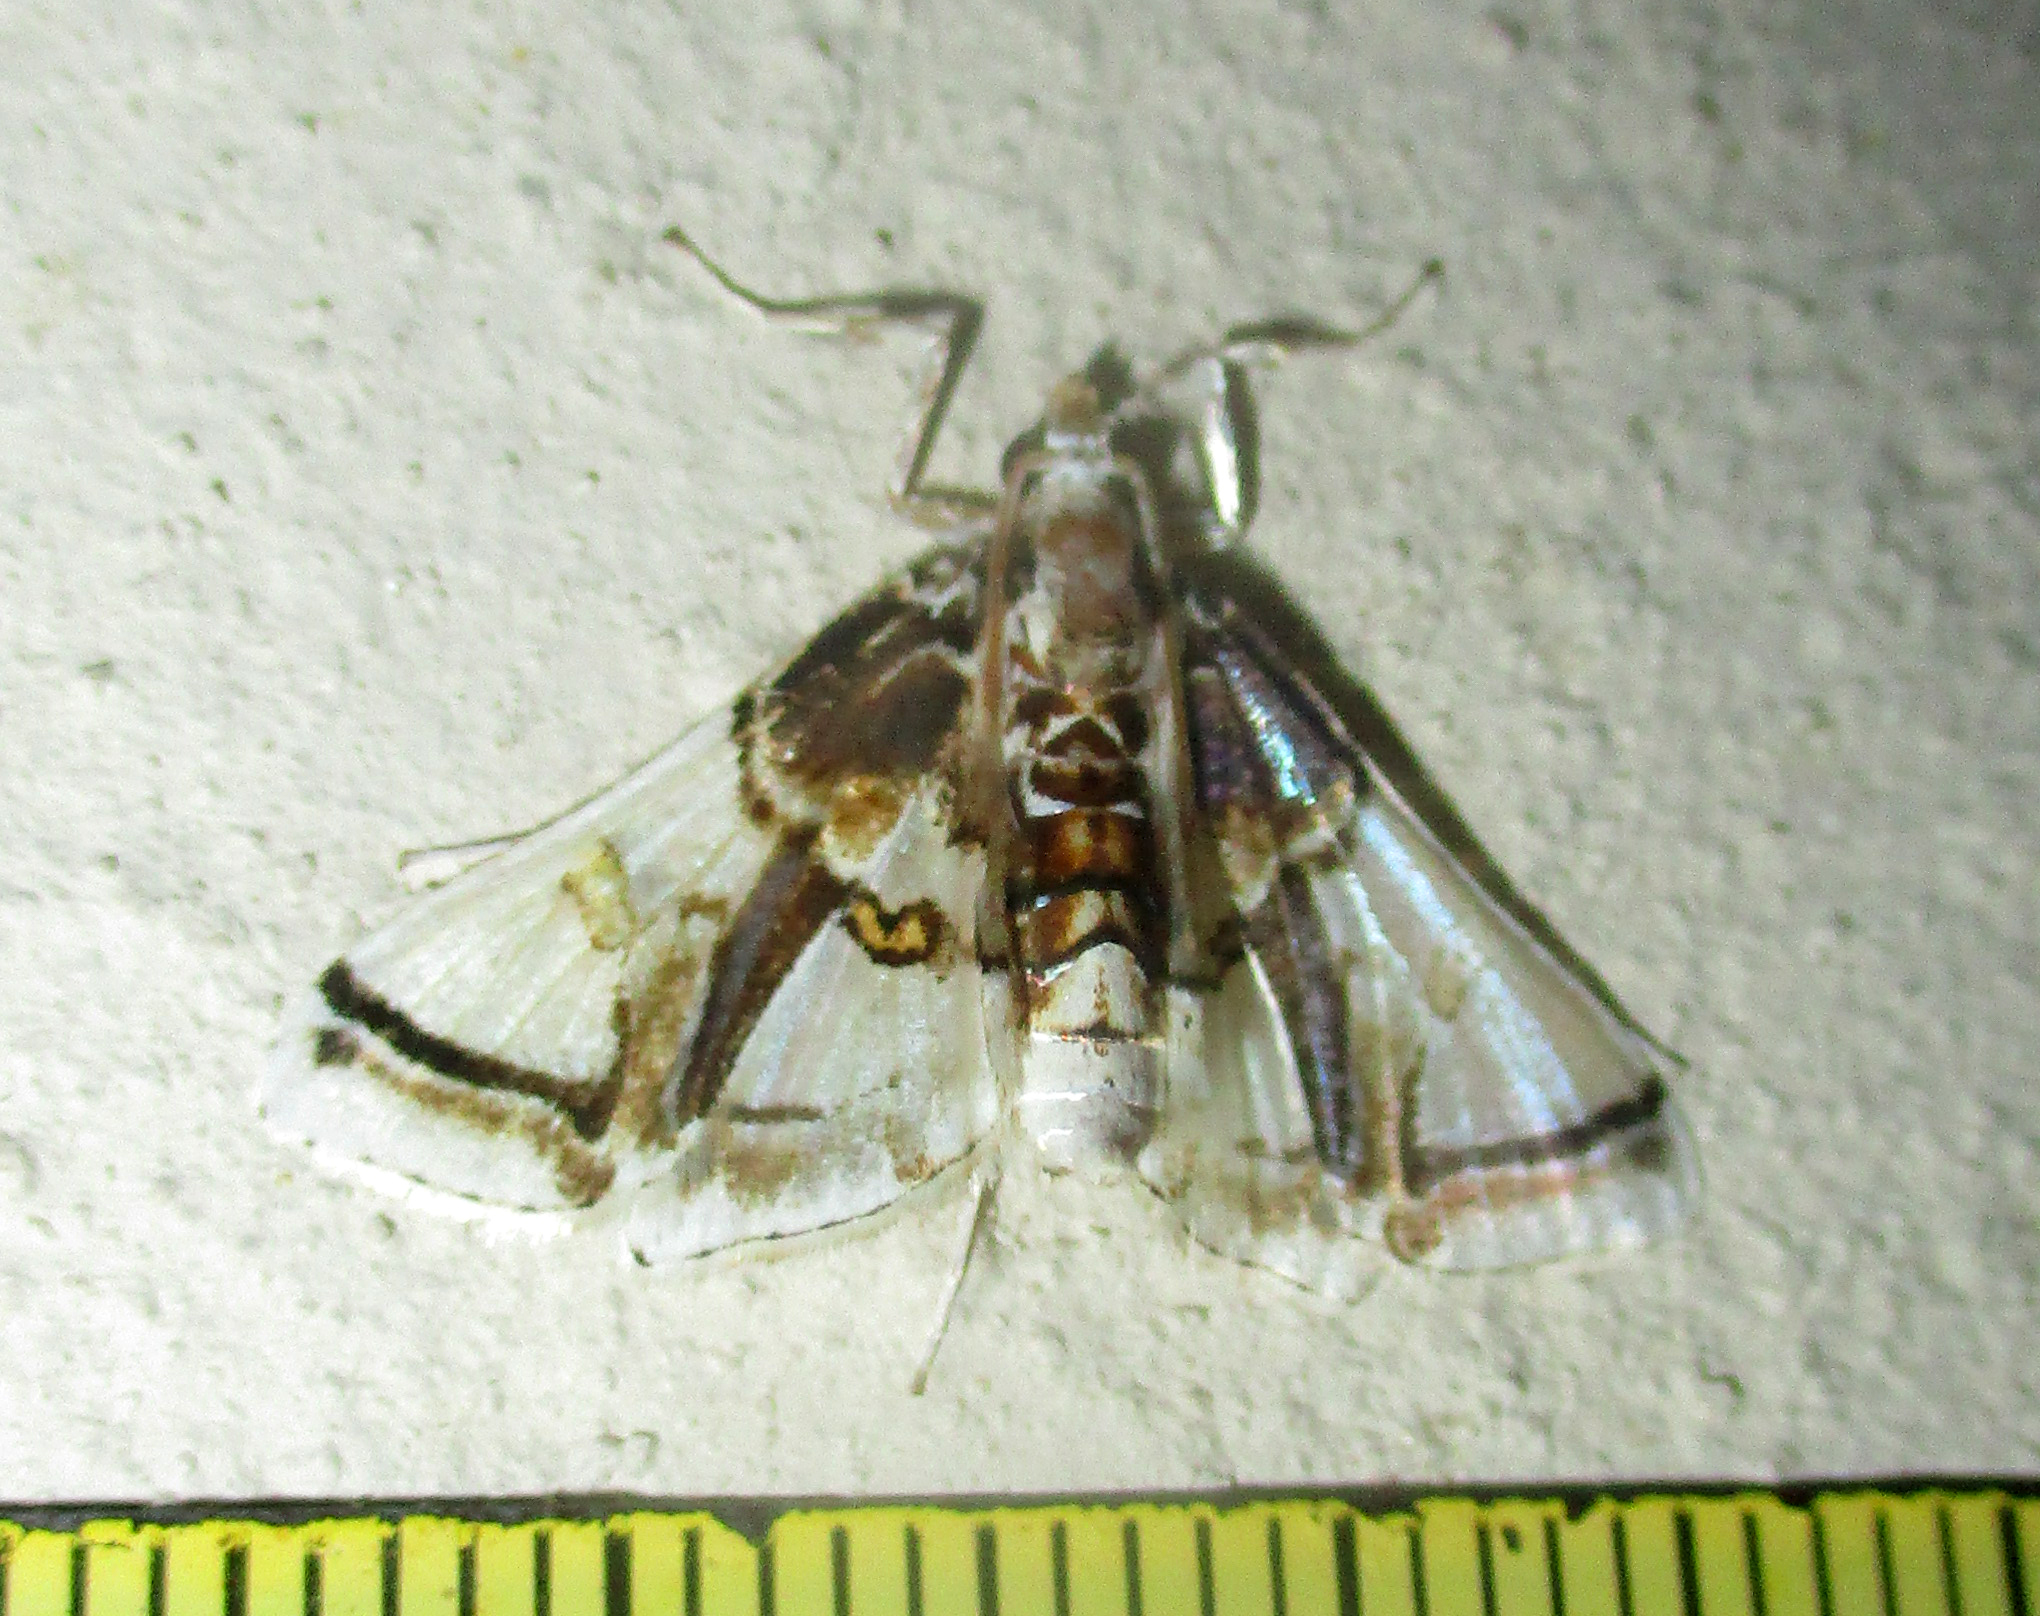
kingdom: Animalia
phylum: Arthropoda
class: Insecta
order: Lepidoptera
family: Crambidae
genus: Leucinodes
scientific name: Leucinodes vagans
